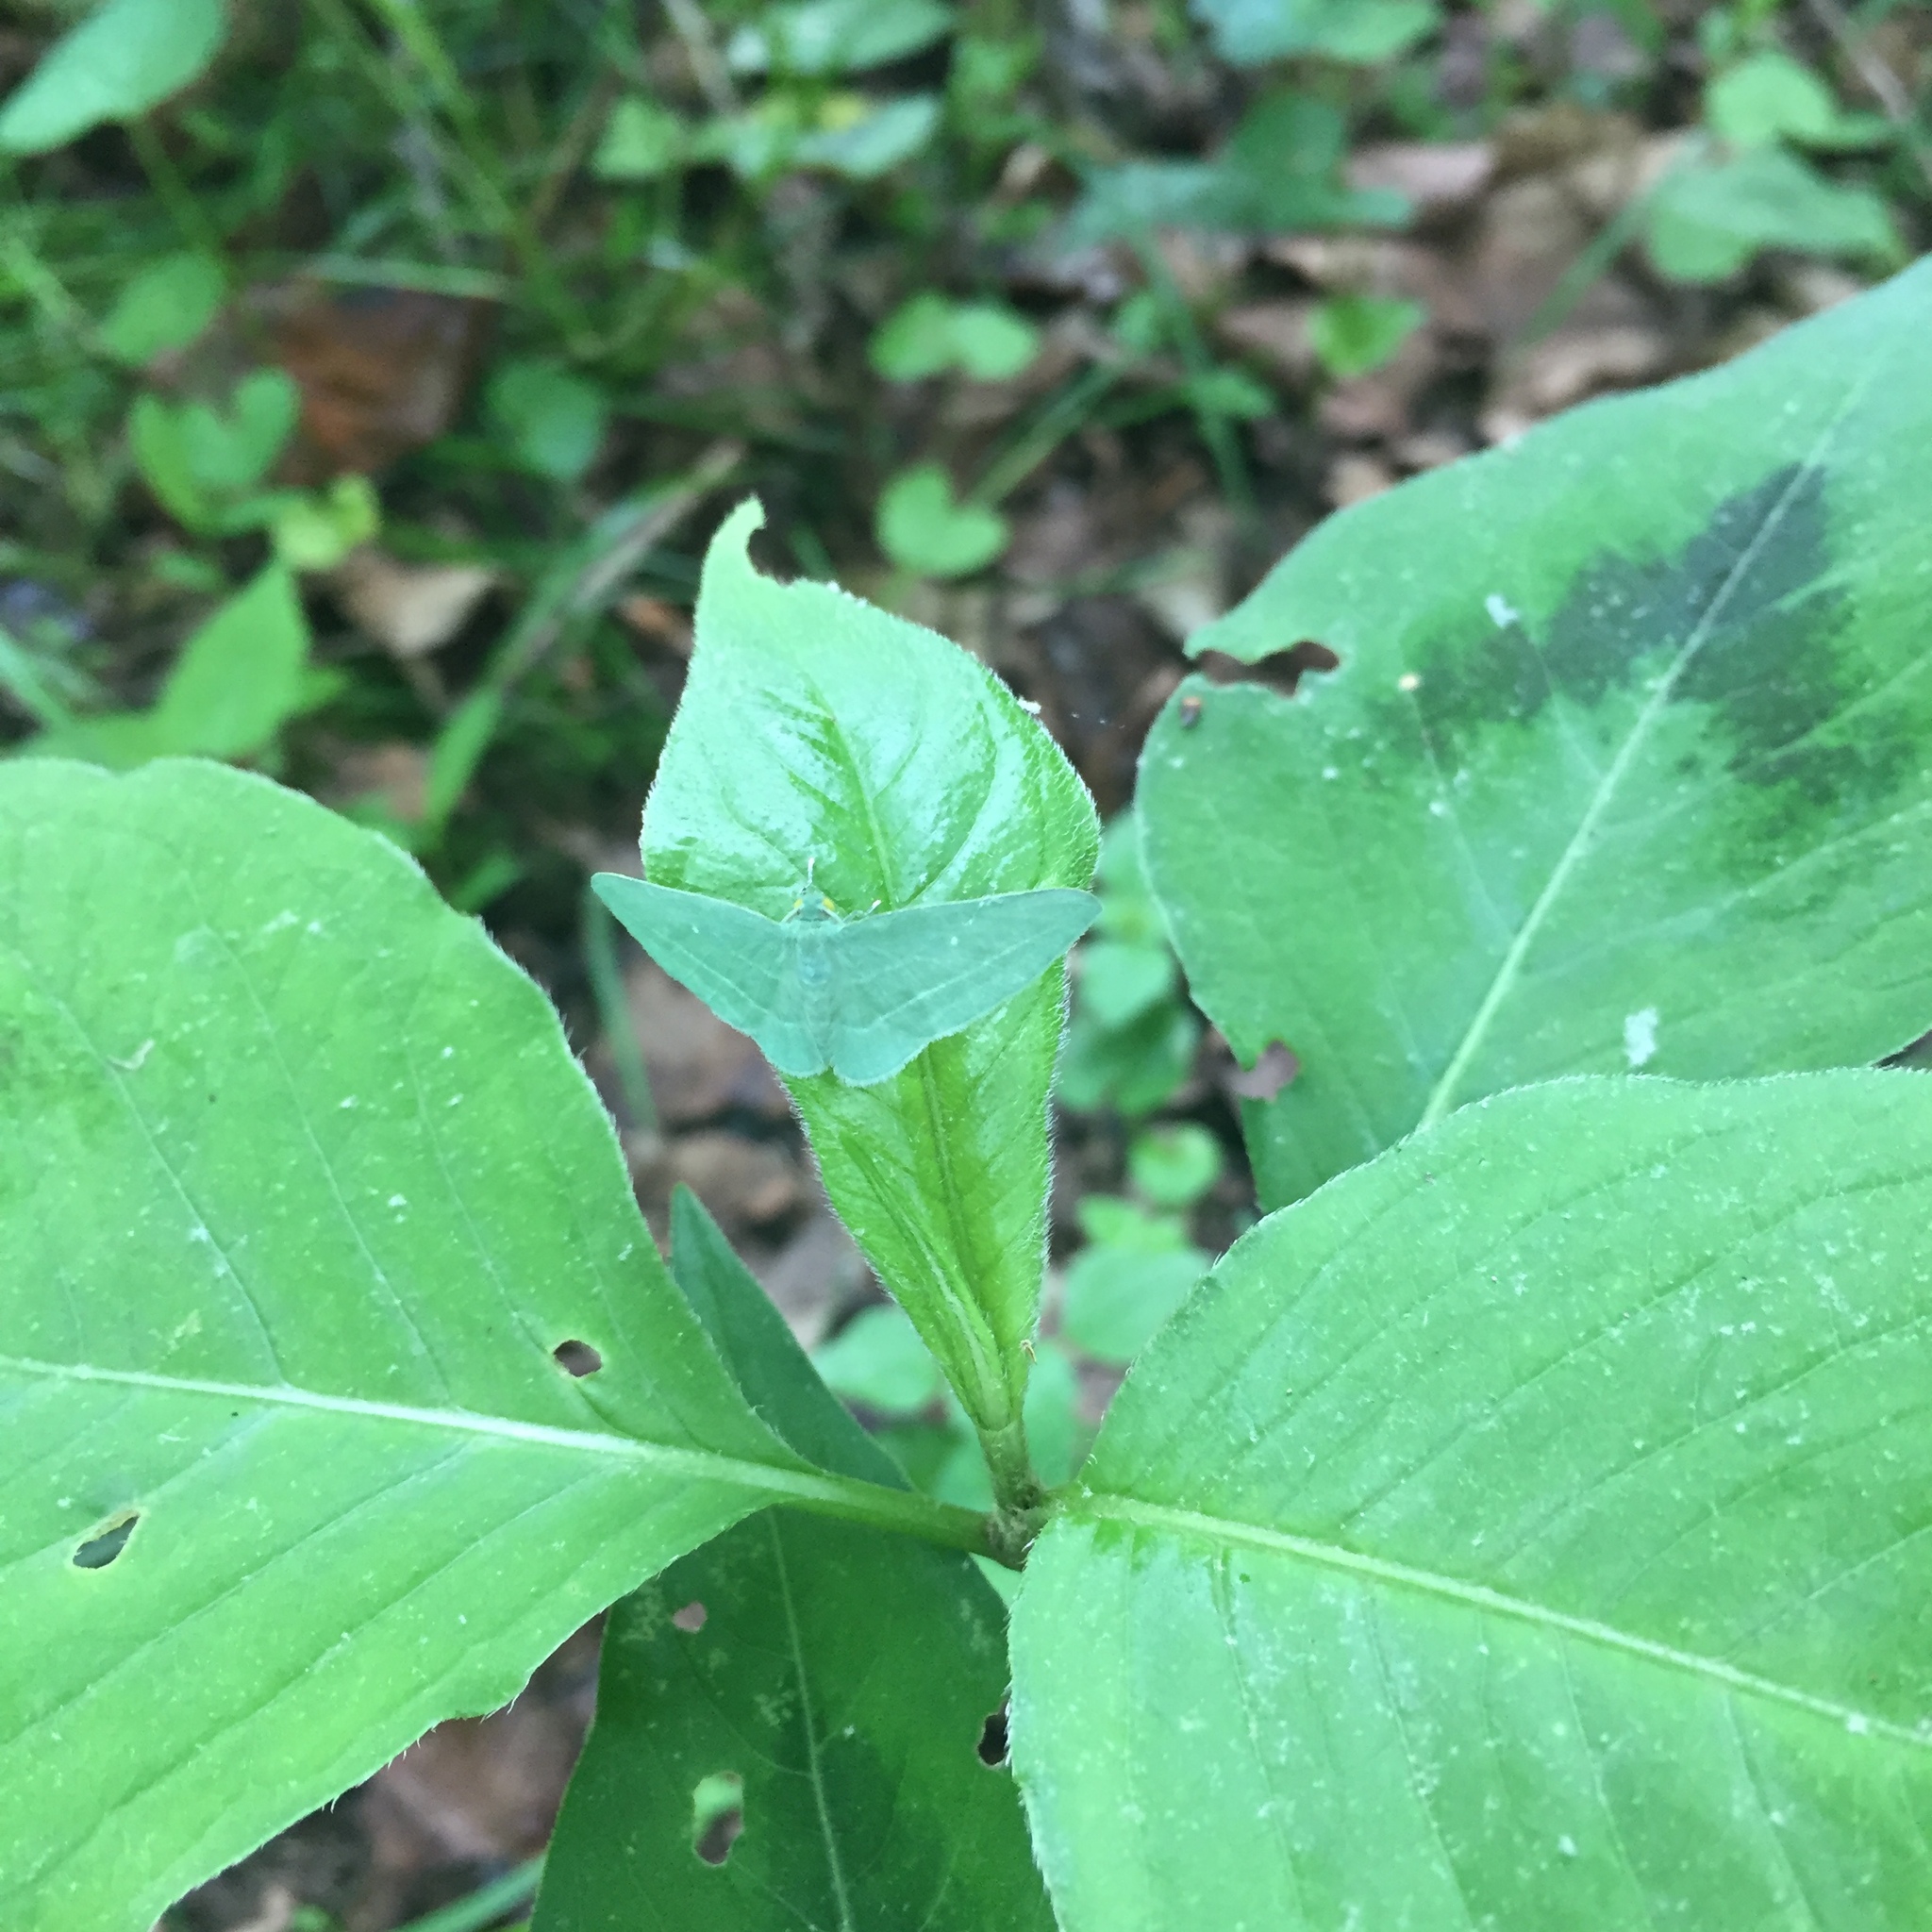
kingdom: Animalia
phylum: Arthropoda
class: Insecta
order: Lepidoptera
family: Geometridae
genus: Dyspteris
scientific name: Dyspteris abortivaria
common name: Bad-wing
